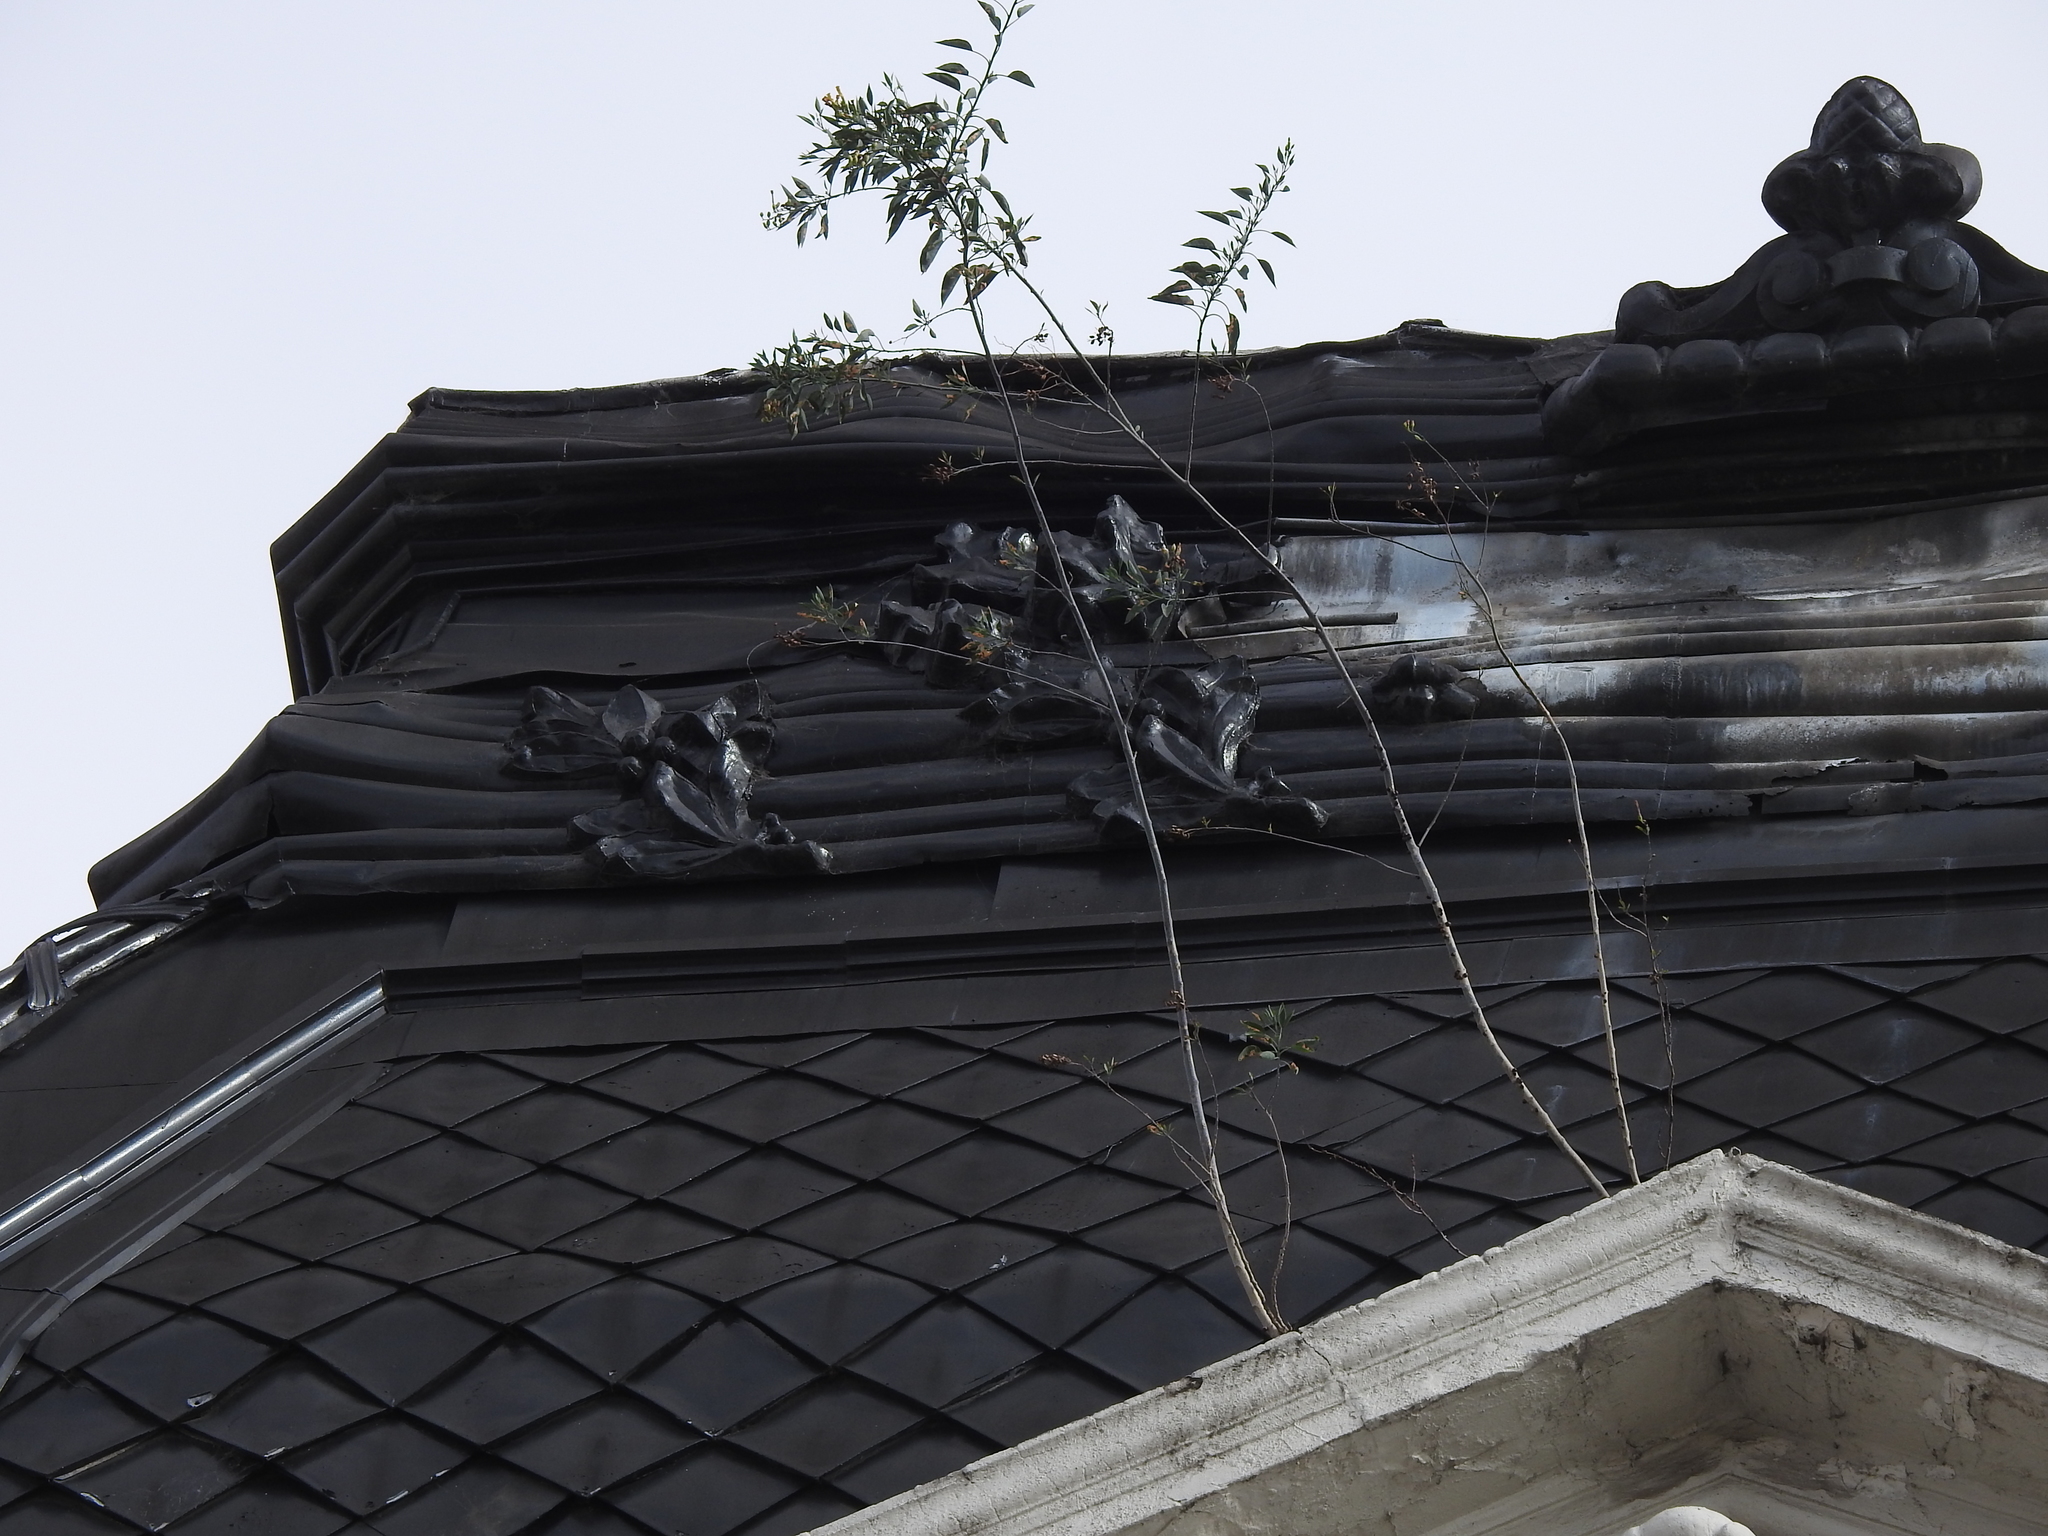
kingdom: Plantae
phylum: Tracheophyta
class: Magnoliopsida
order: Solanales
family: Solanaceae
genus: Nicotiana
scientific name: Nicotiana glauca
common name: Tree tobacco
